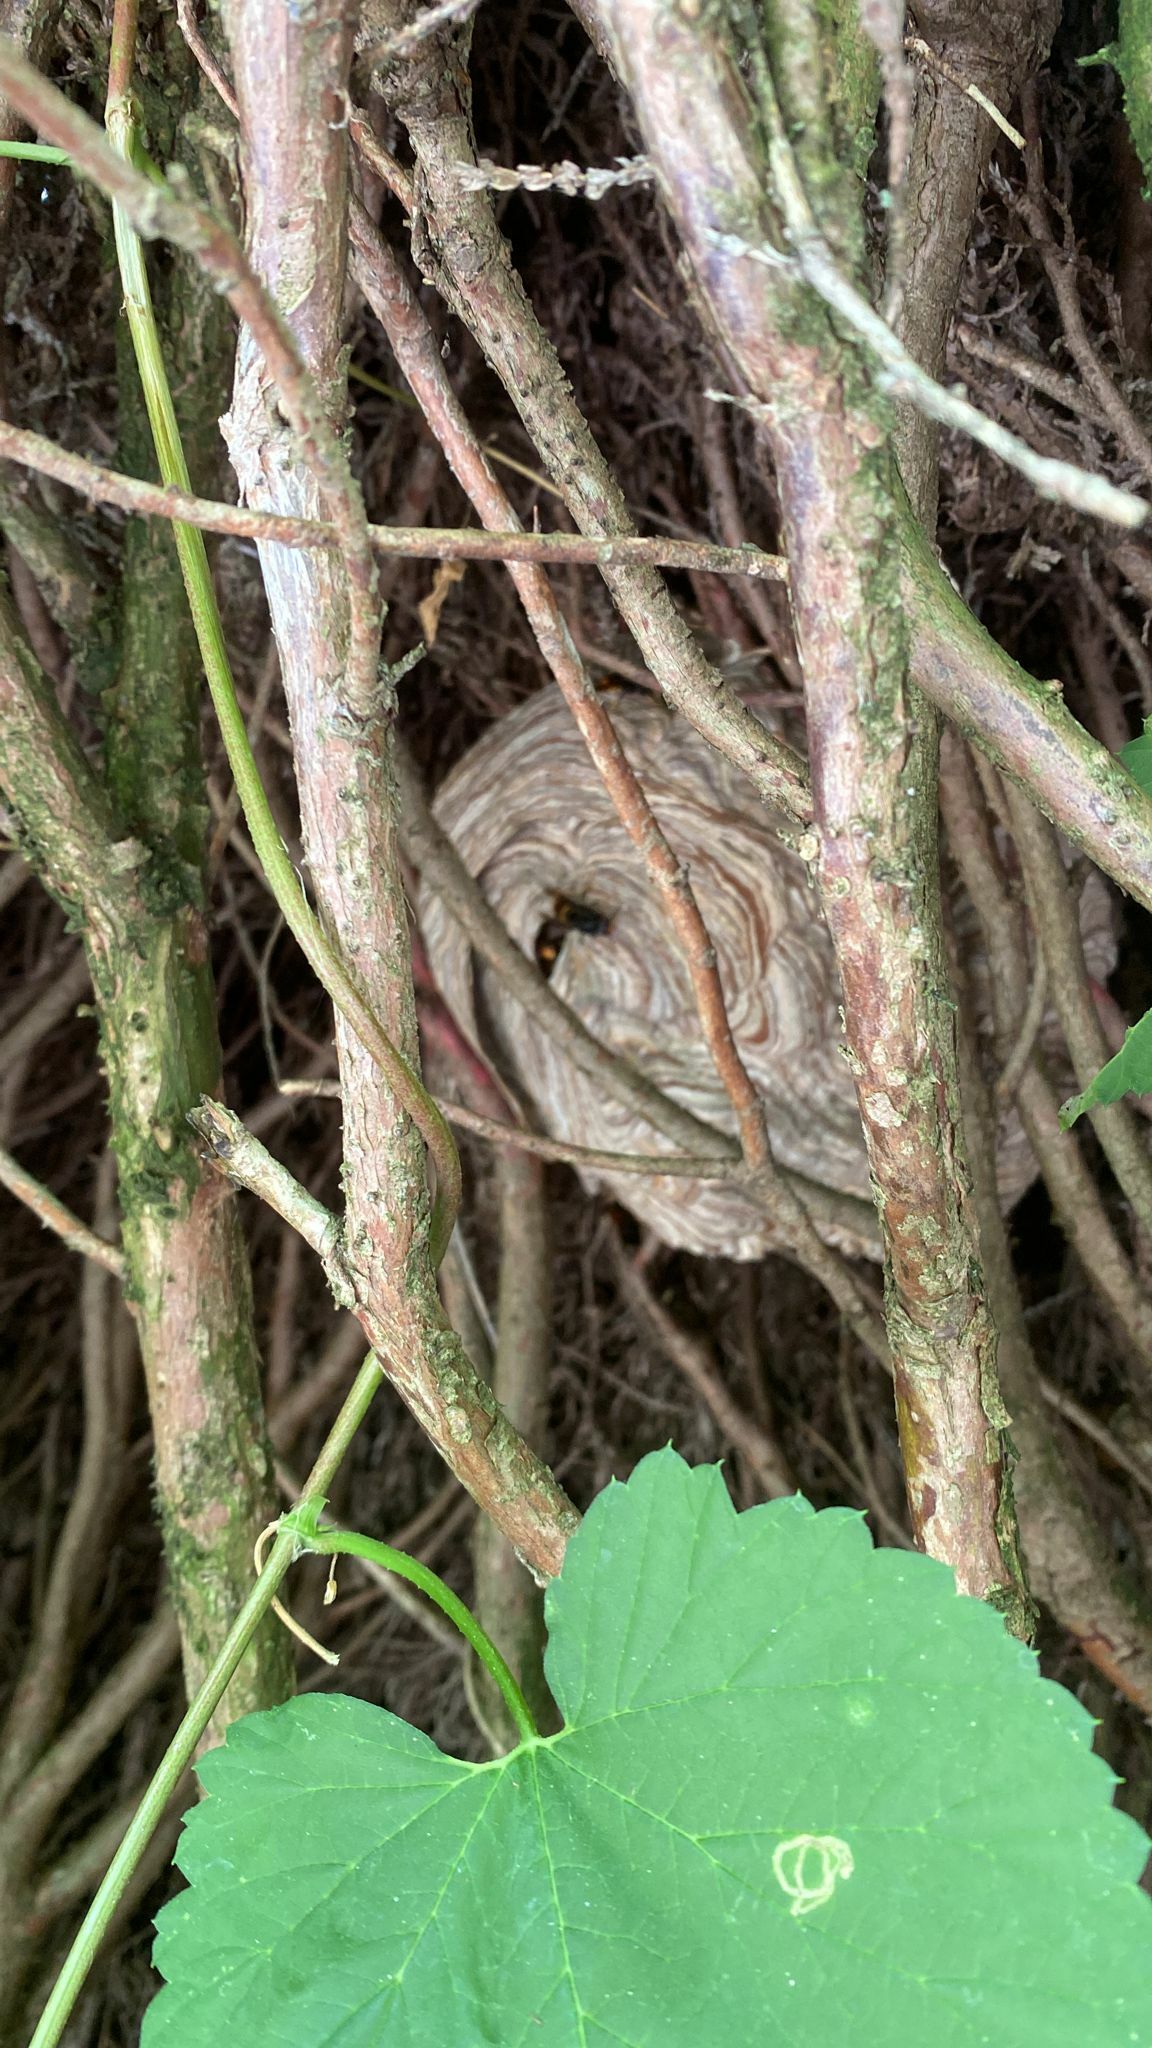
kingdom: Animalia
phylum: Arthropoda
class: Insecta
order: Hymenoptera
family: Vespidae
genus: Vespa
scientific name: Vespa velutina
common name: Asian hornet
